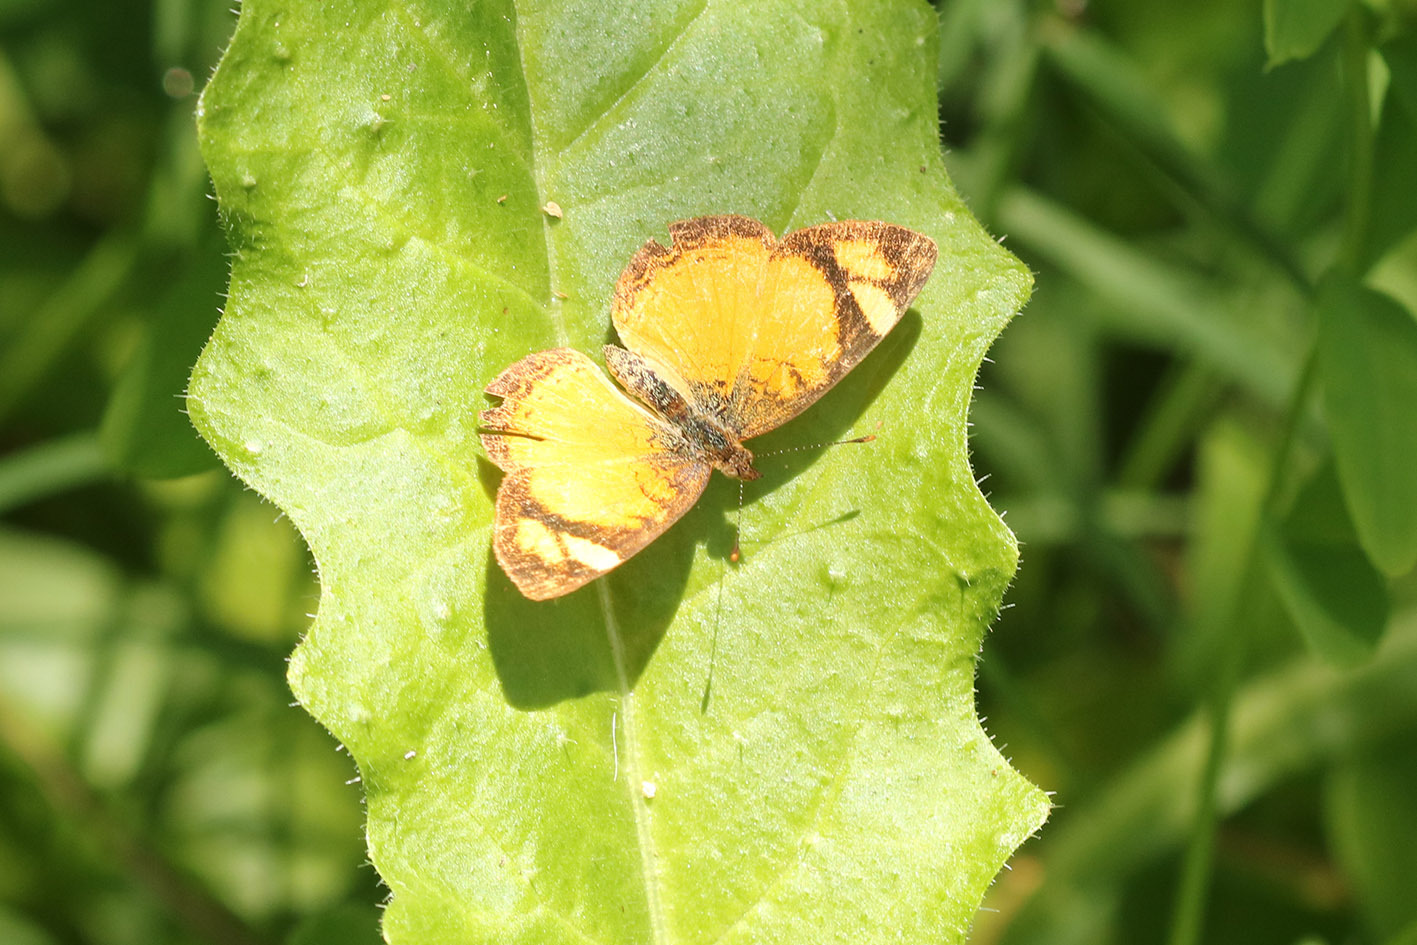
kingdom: Animalia
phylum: Arthropoda
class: Insecta
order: Lepidoptera
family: Nymphalidae
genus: Tegosa
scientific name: Tegosa claudina
